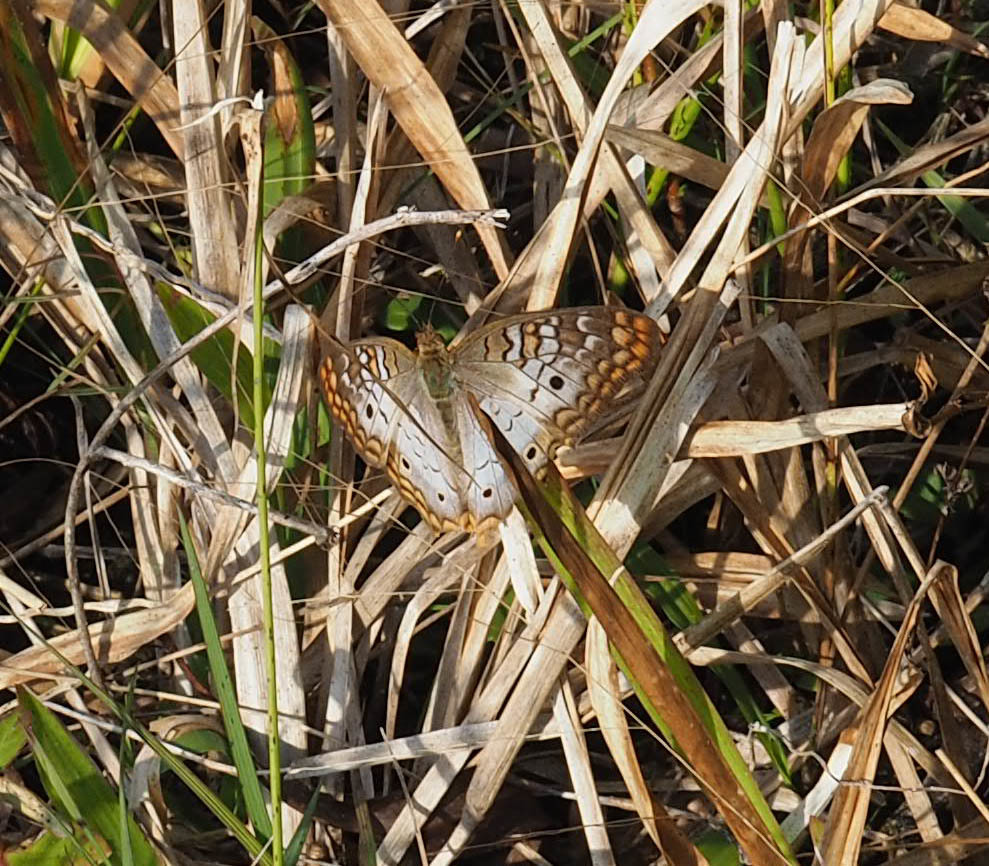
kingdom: Animalia
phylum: Arthropoda
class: Insecta
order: Lepidoptera
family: Nymphalidae
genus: Anartia
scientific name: Anartia jatrophae
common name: White peacock
